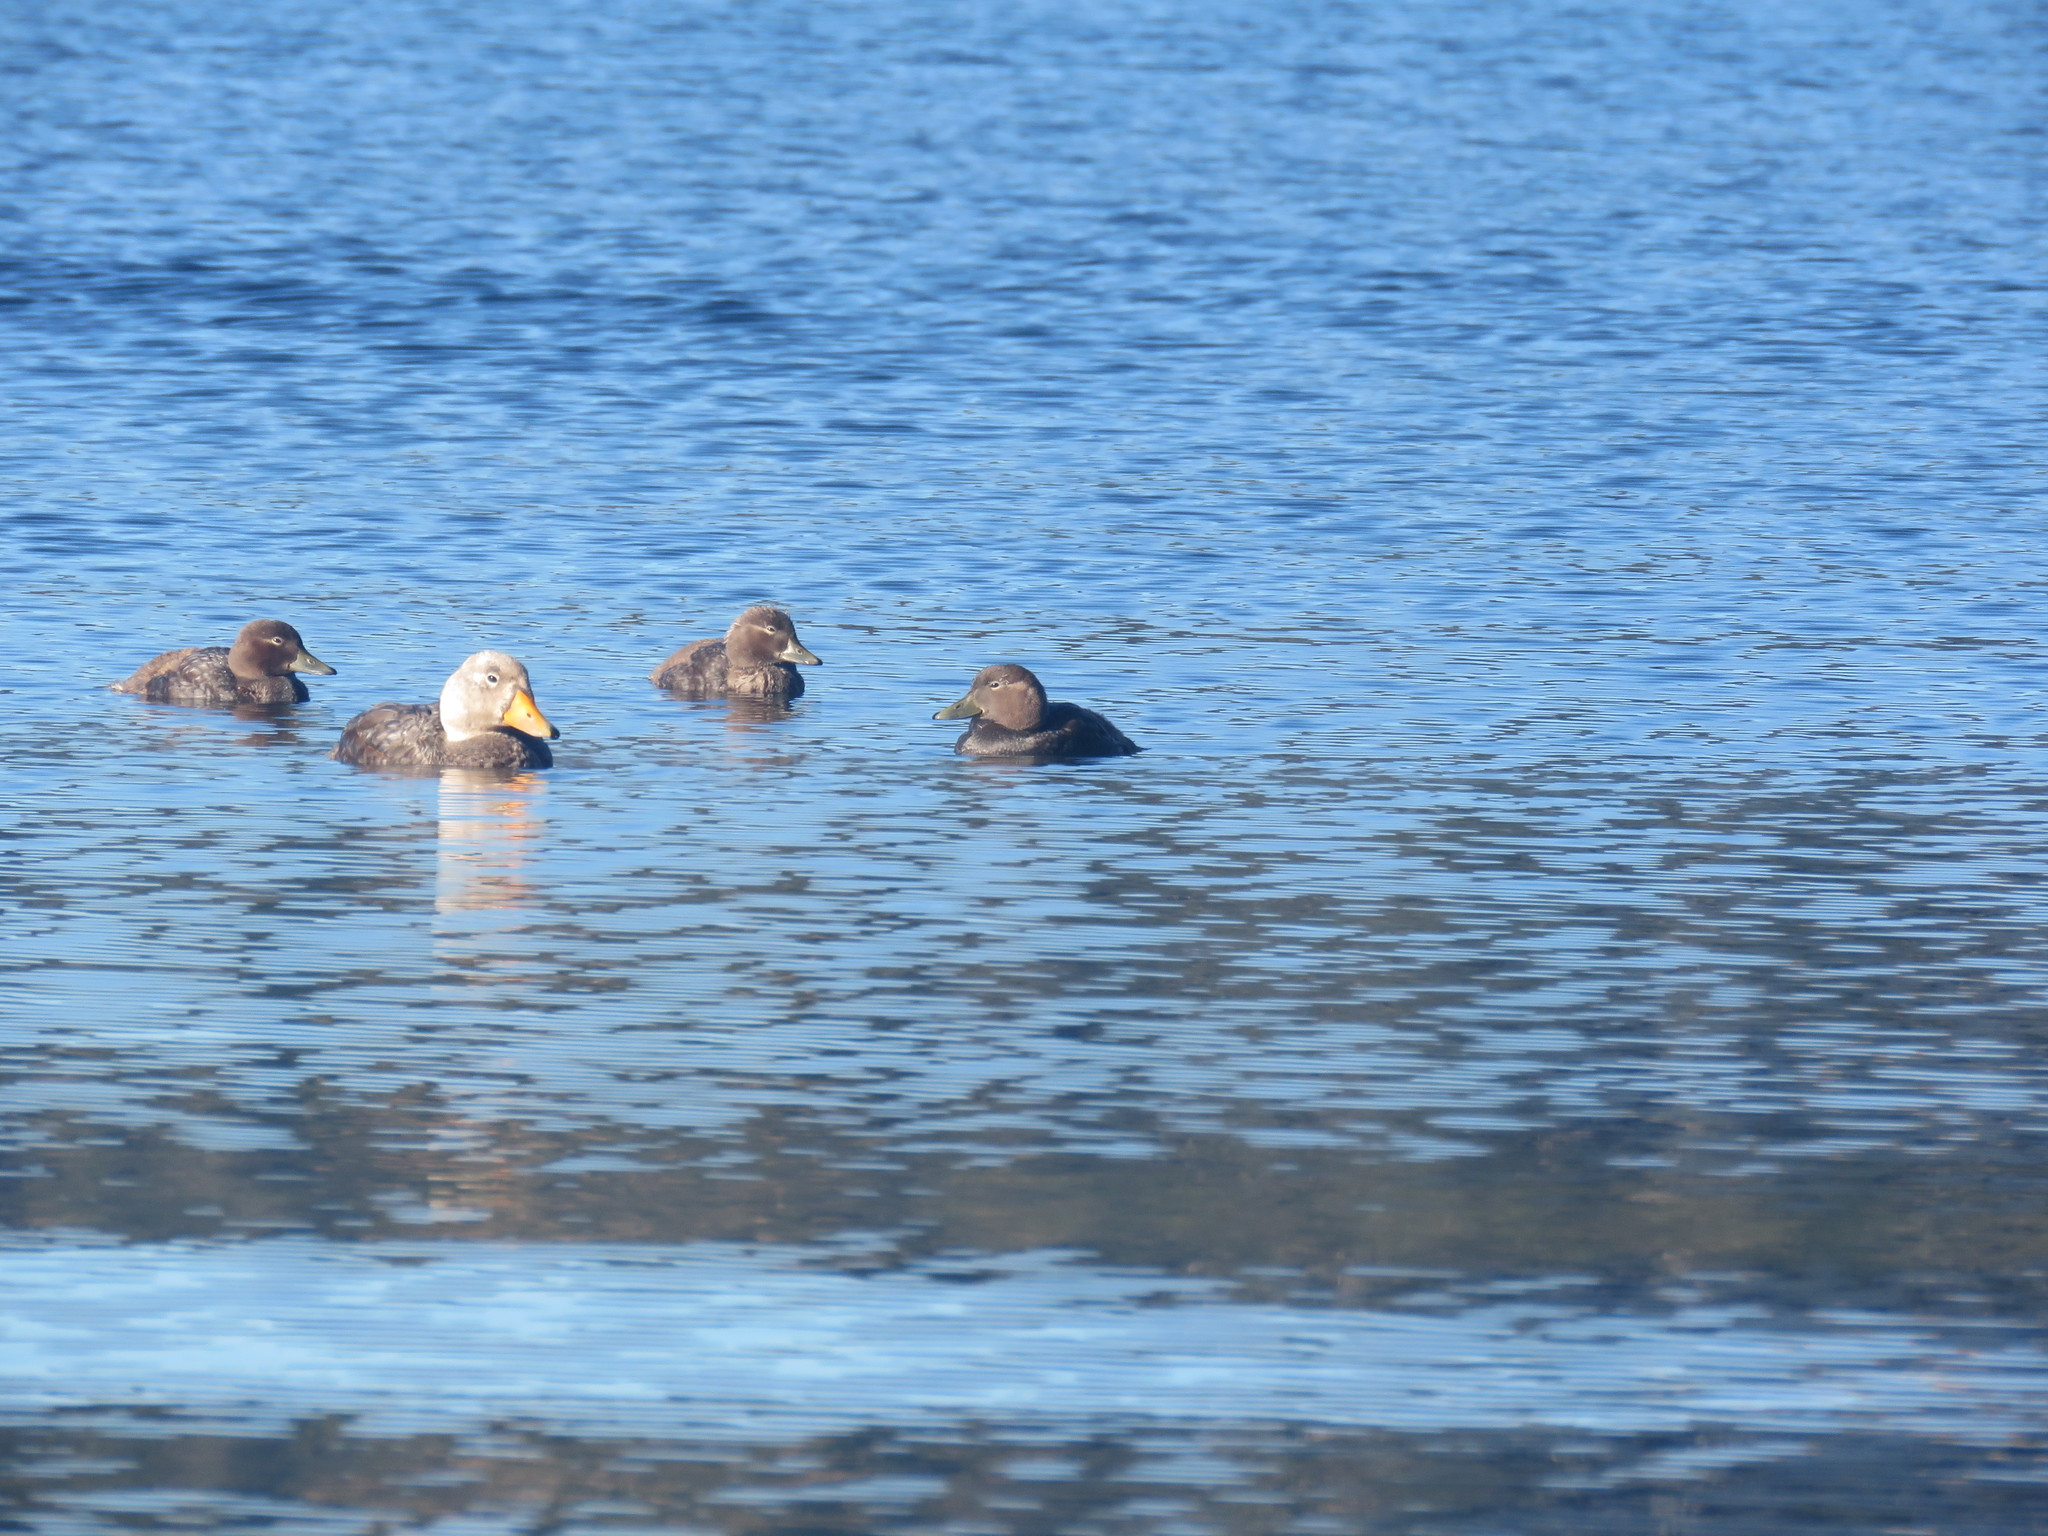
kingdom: Animalia
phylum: Chordata
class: Aves
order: Anseriformes
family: Anatidae
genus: Tachyeres
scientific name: Tachyeres patachonicus
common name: Flying steamer duck
